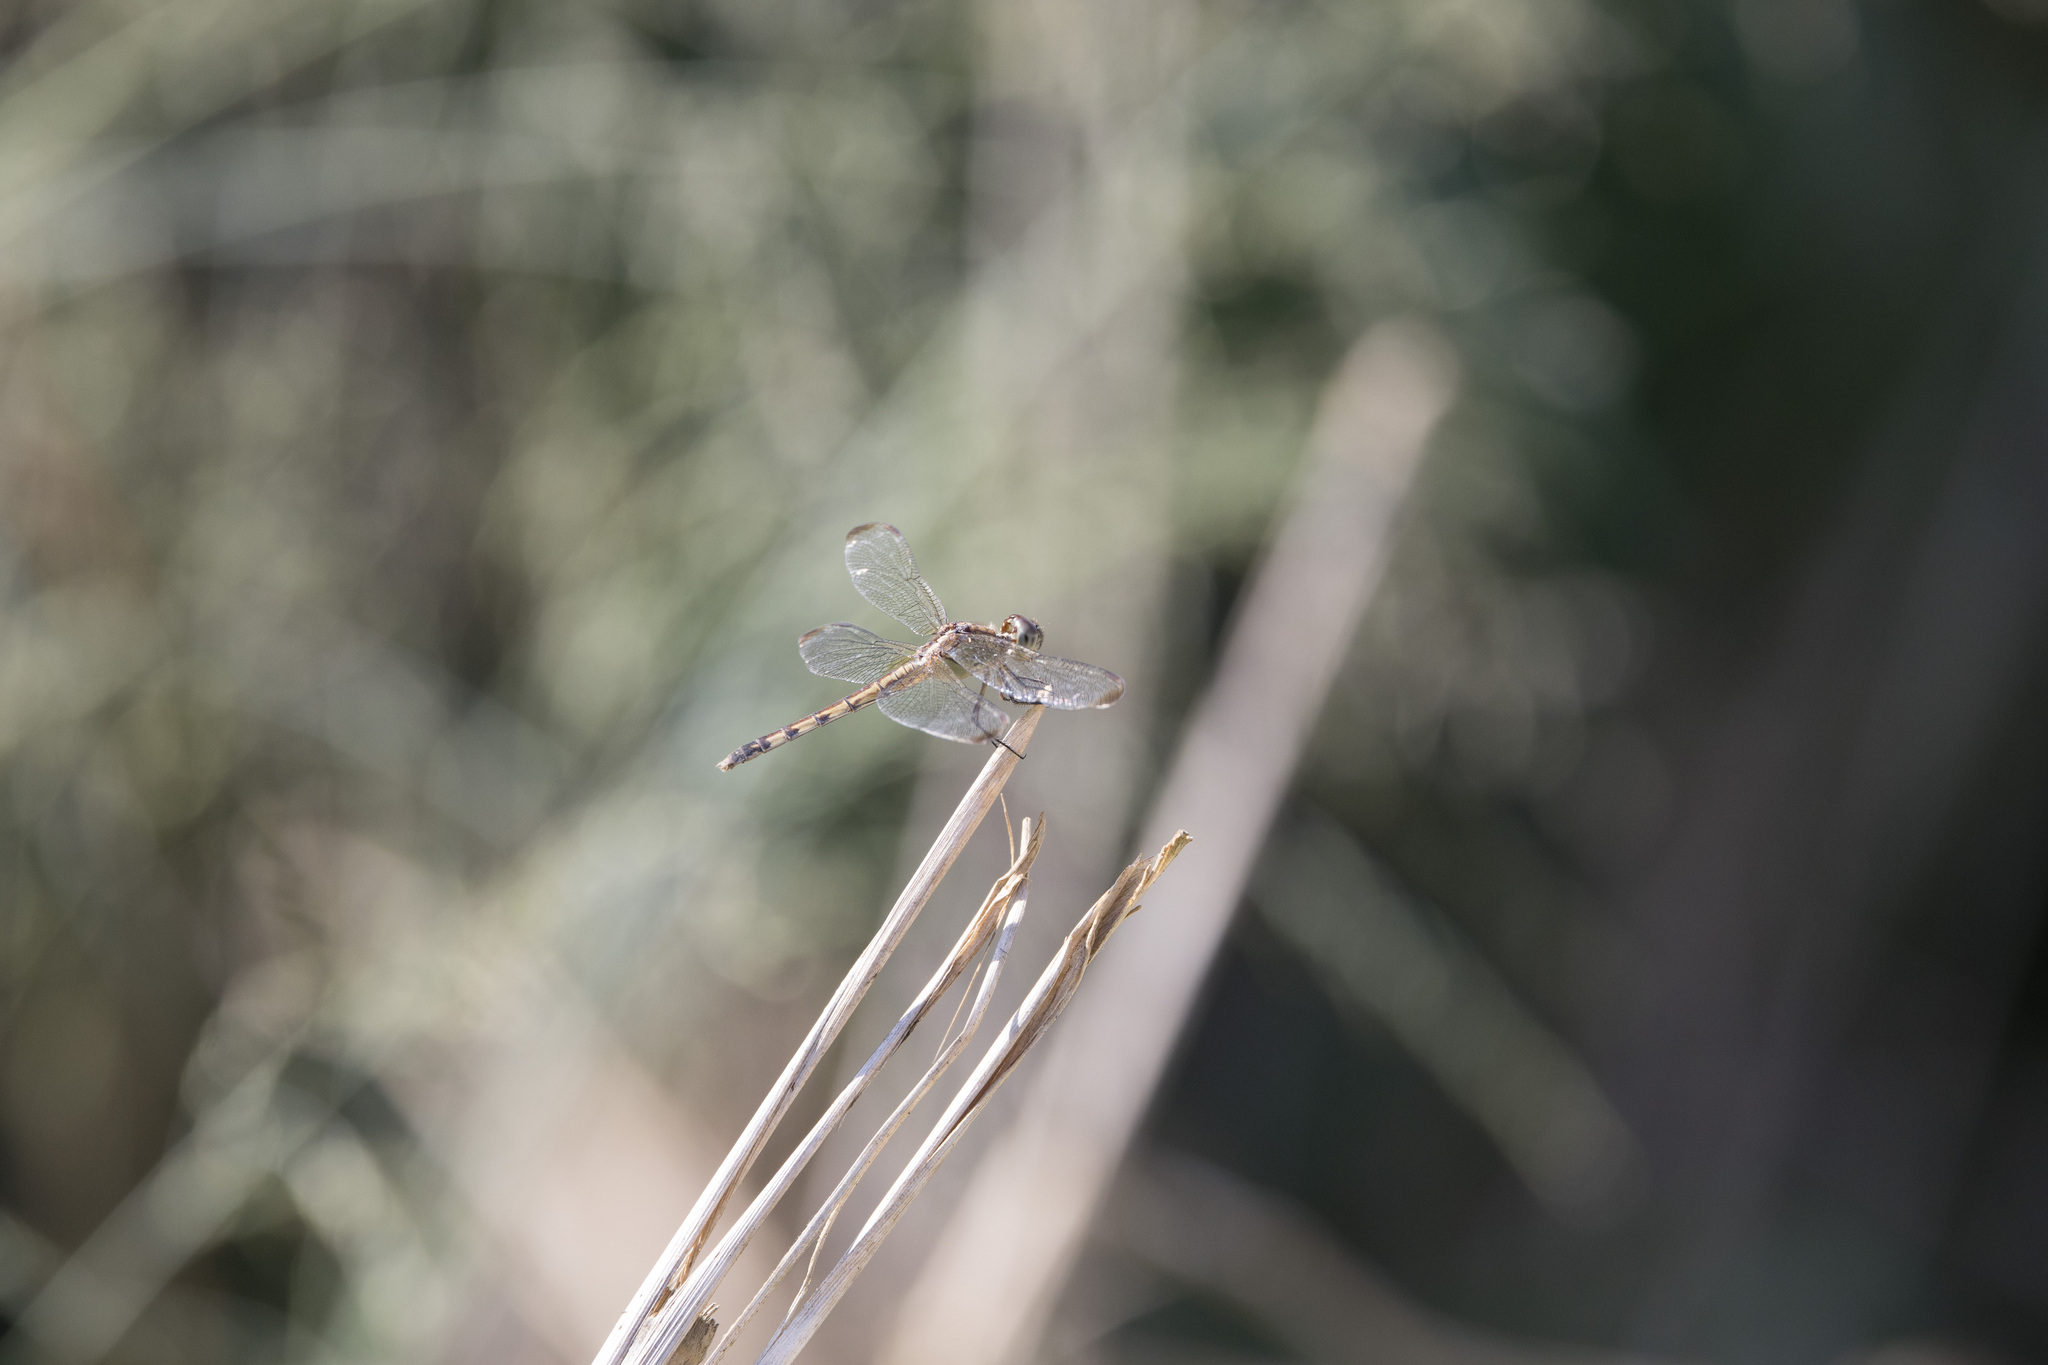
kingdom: Animalia
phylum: Arthropoda
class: Insecta
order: Odonata
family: Libellulidae
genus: Erythrodiplax
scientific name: Erythrodiplax umbrata
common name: Band-winged dragonlet
